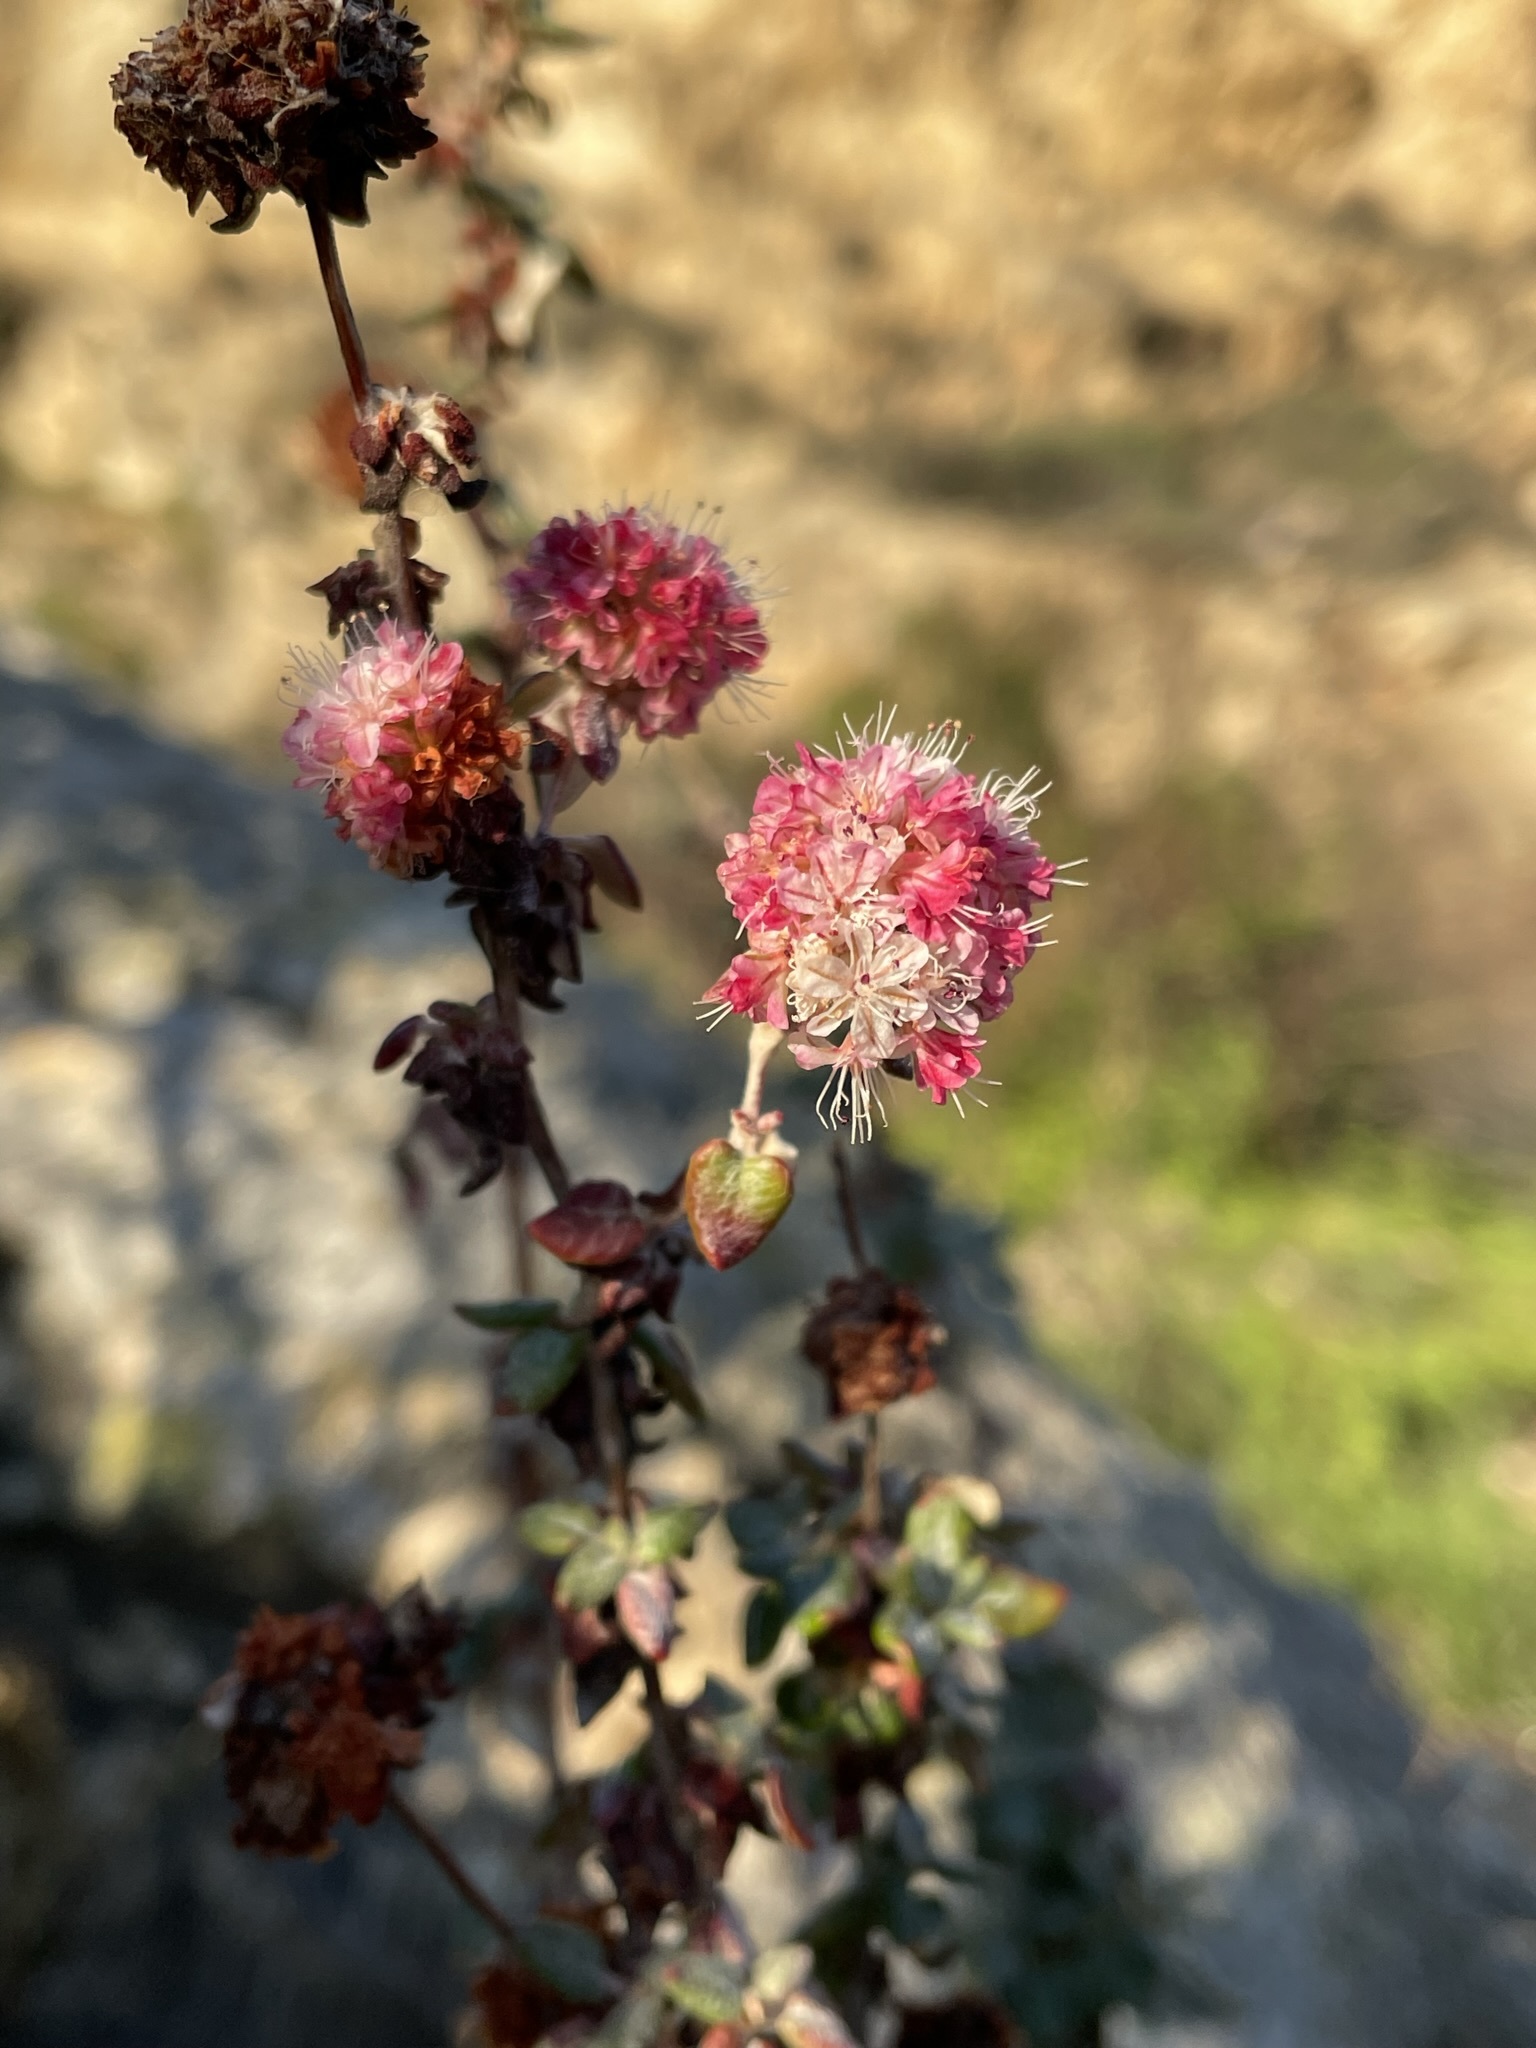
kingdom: Plantae
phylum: Tracheophyta
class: Magnoliopsida
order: Caryophyllales
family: Polygonaceae
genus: Eriogonum
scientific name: Eriogonum parvifolium
